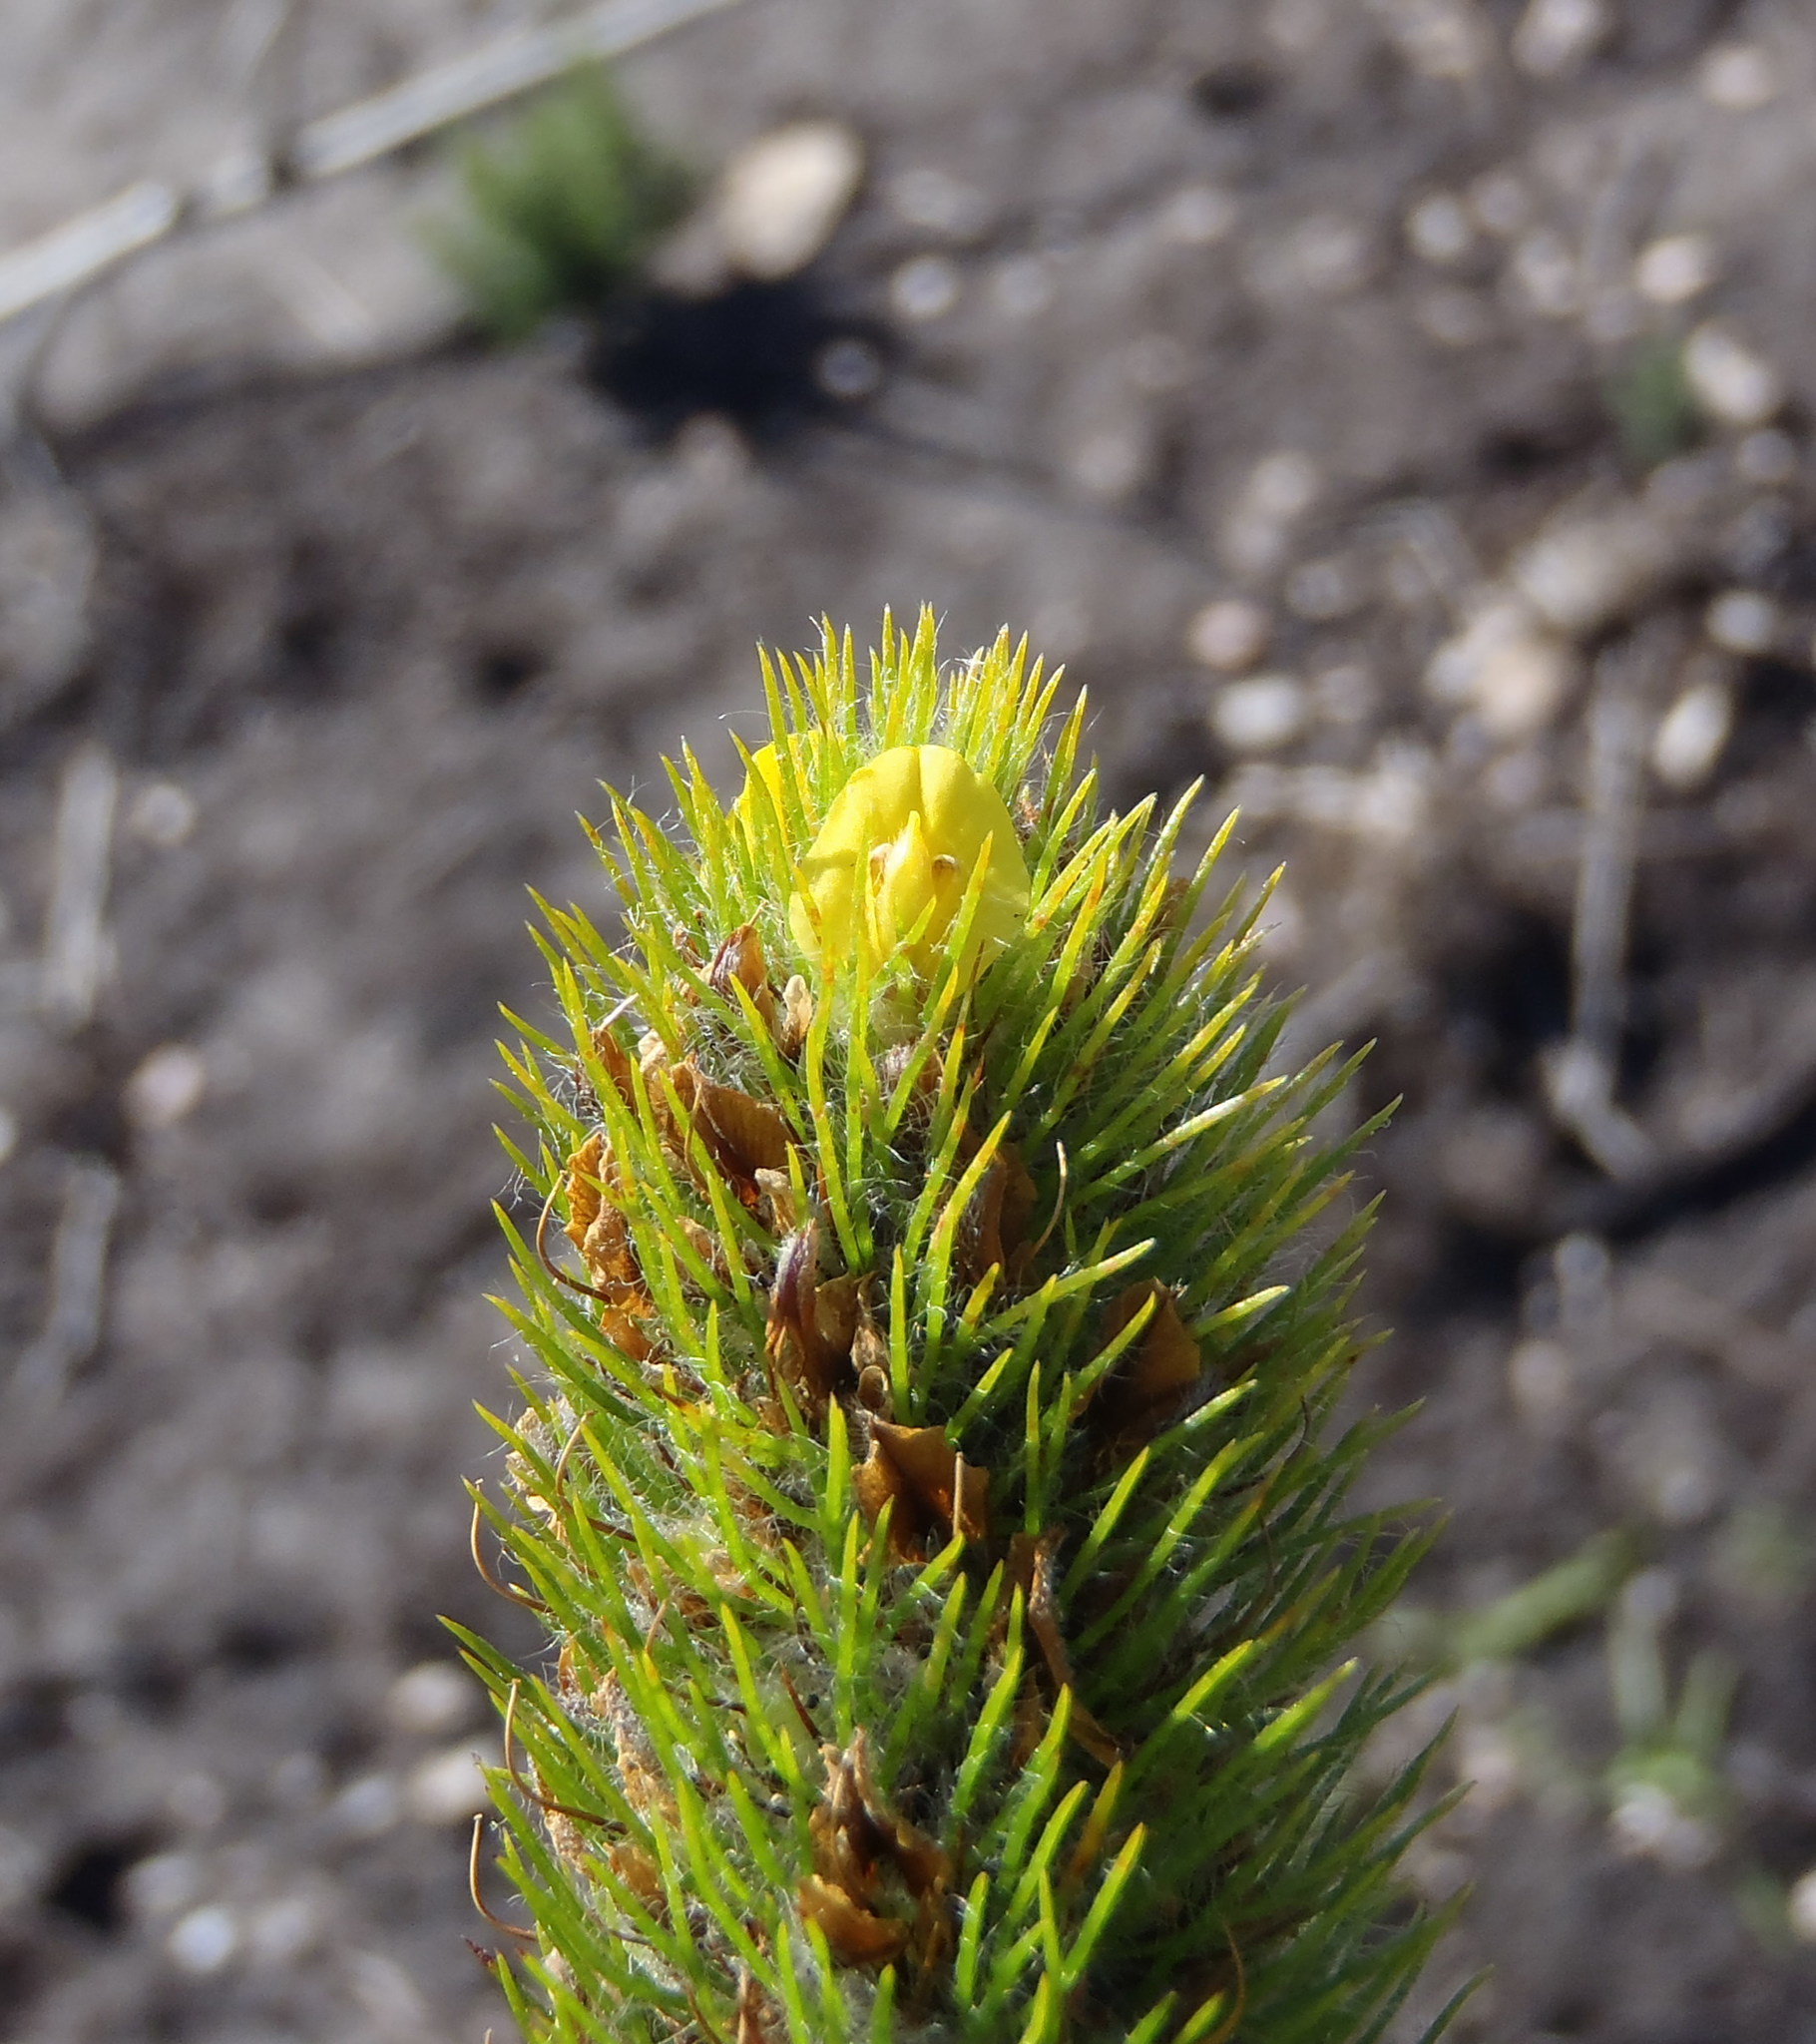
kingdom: Plantae
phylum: Tracheophyta
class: Magnoliopsida
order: Fabales
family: Fabaceae
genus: Aspalathus
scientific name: Aspalathus alopecurus
